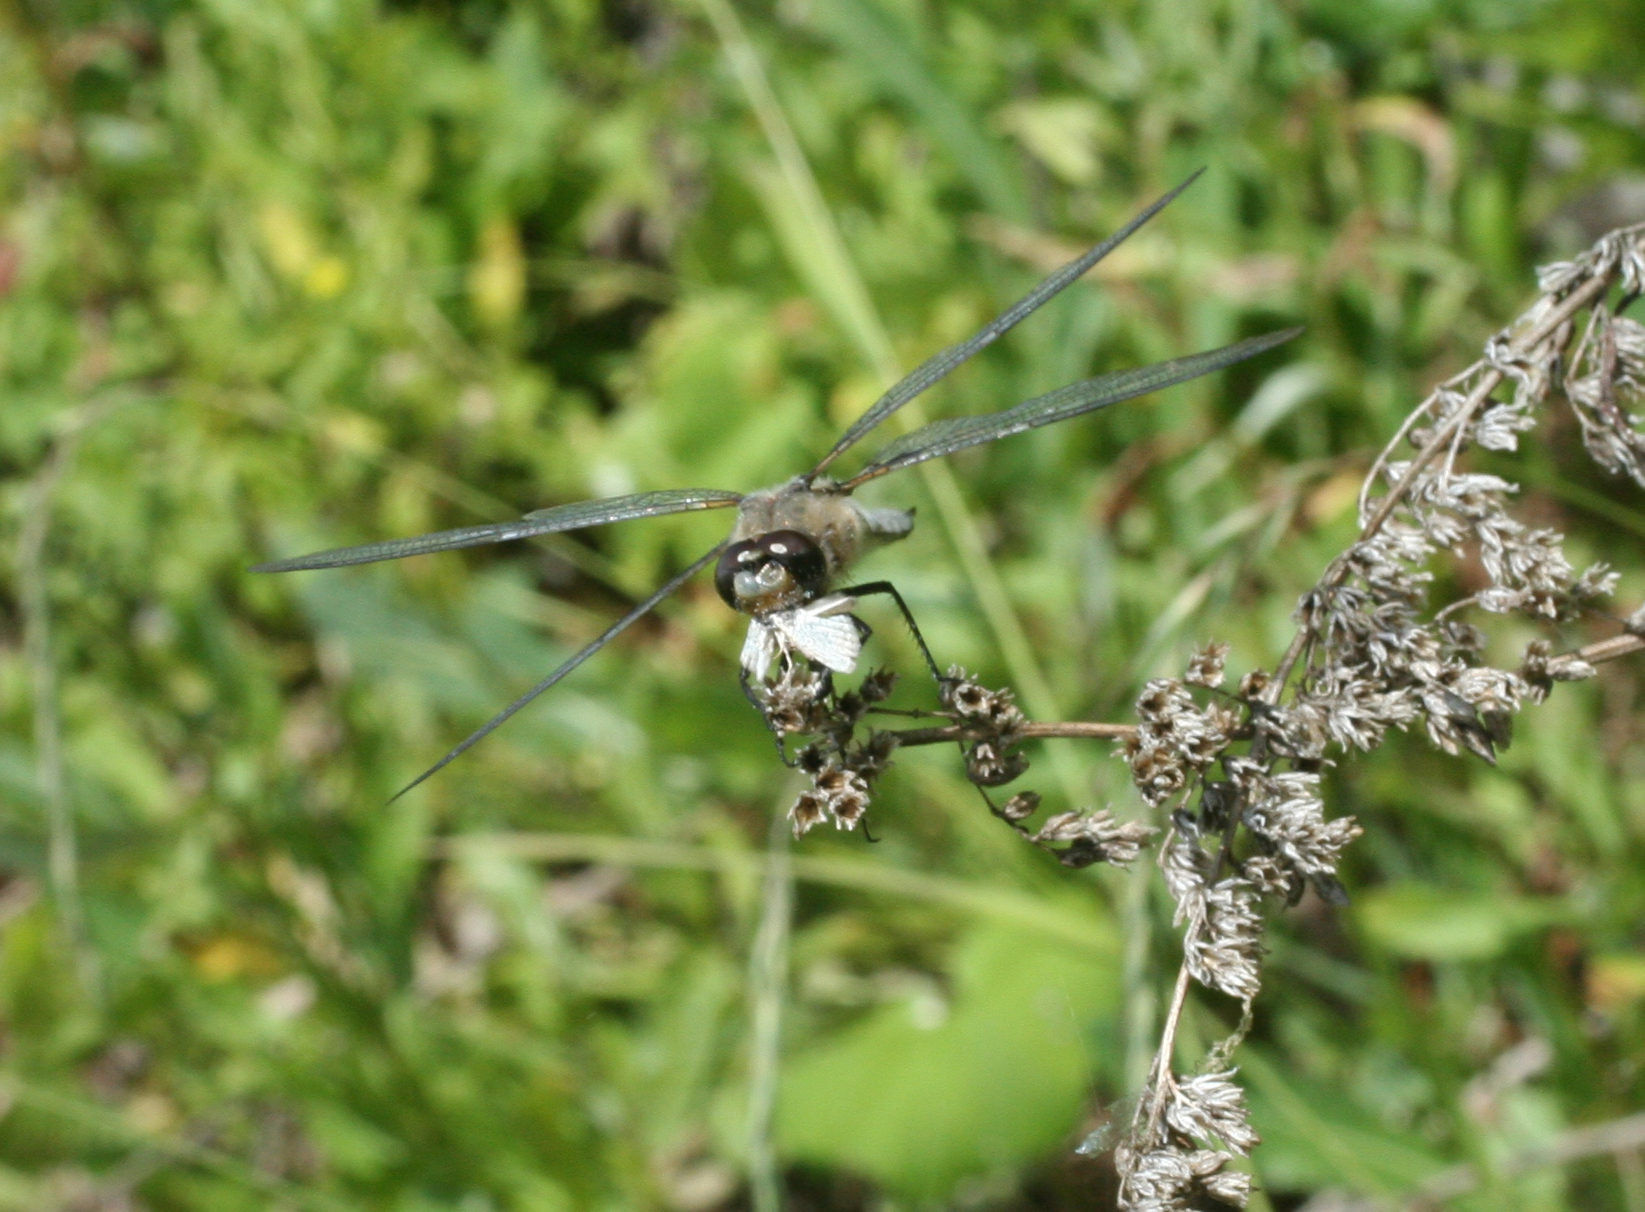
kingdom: Animalia
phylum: Arthropoda
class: Insecta
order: Odonata
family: Libellulidae
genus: Libellula
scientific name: Libellula quadrimaculata
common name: Four-spotted chaser
